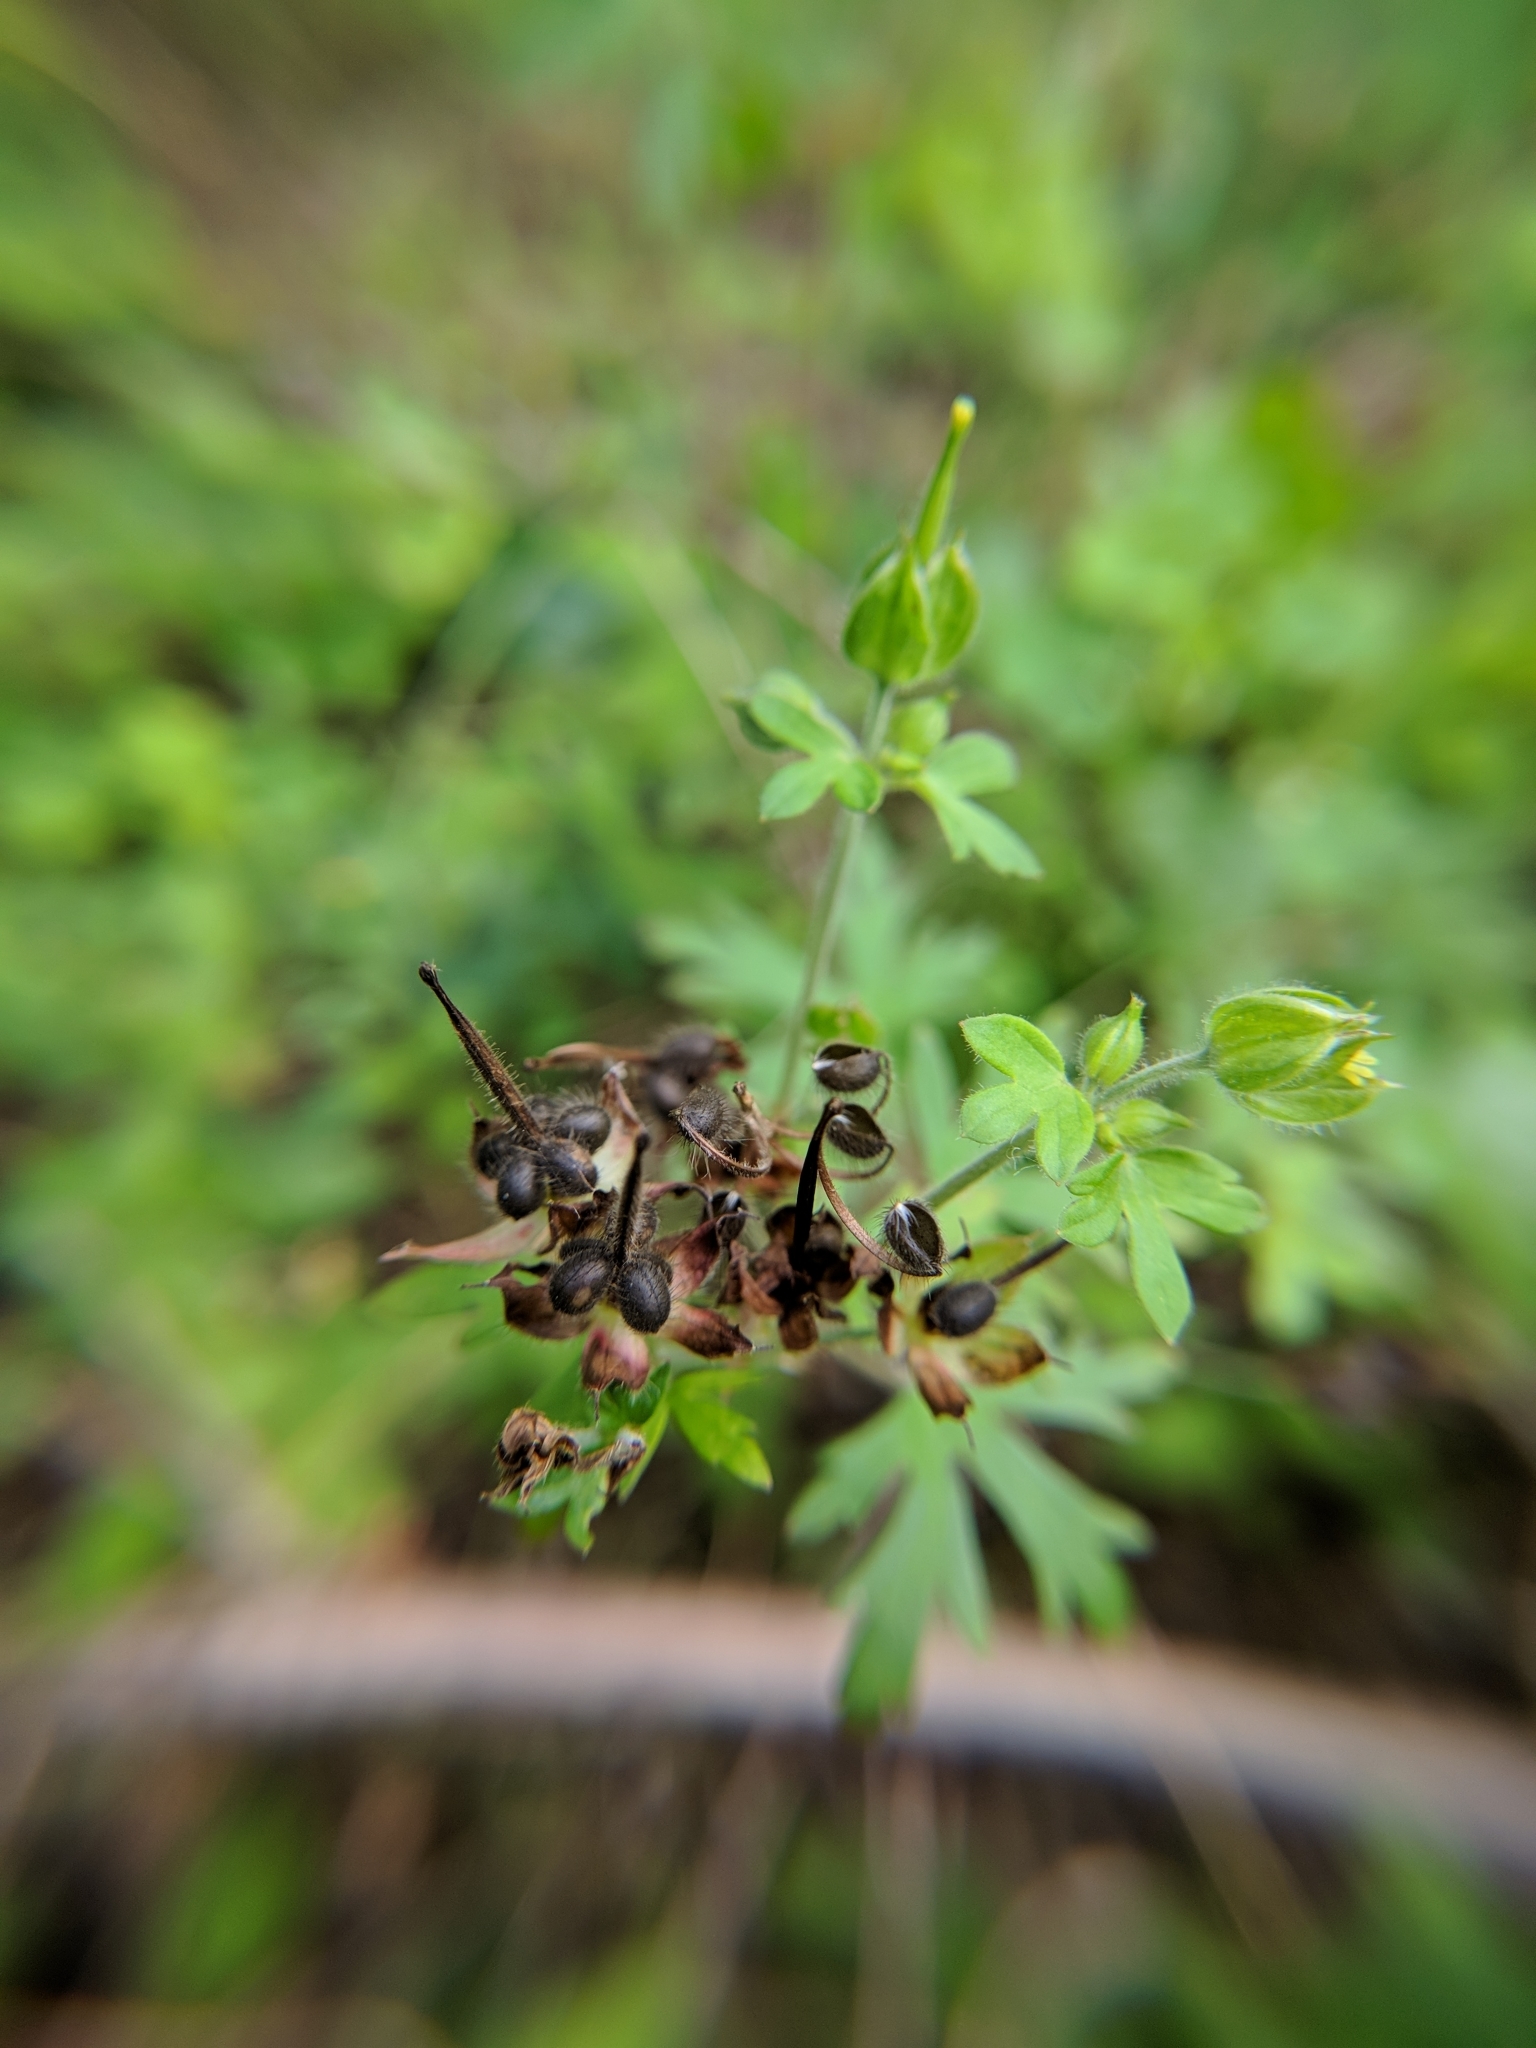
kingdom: Plantae
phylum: Tracheophyta
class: Magnoliopsida
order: Geraniales
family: Geraniaceae
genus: Geranium
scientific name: Geranium carolinianum
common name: Carolina crane's-bill
